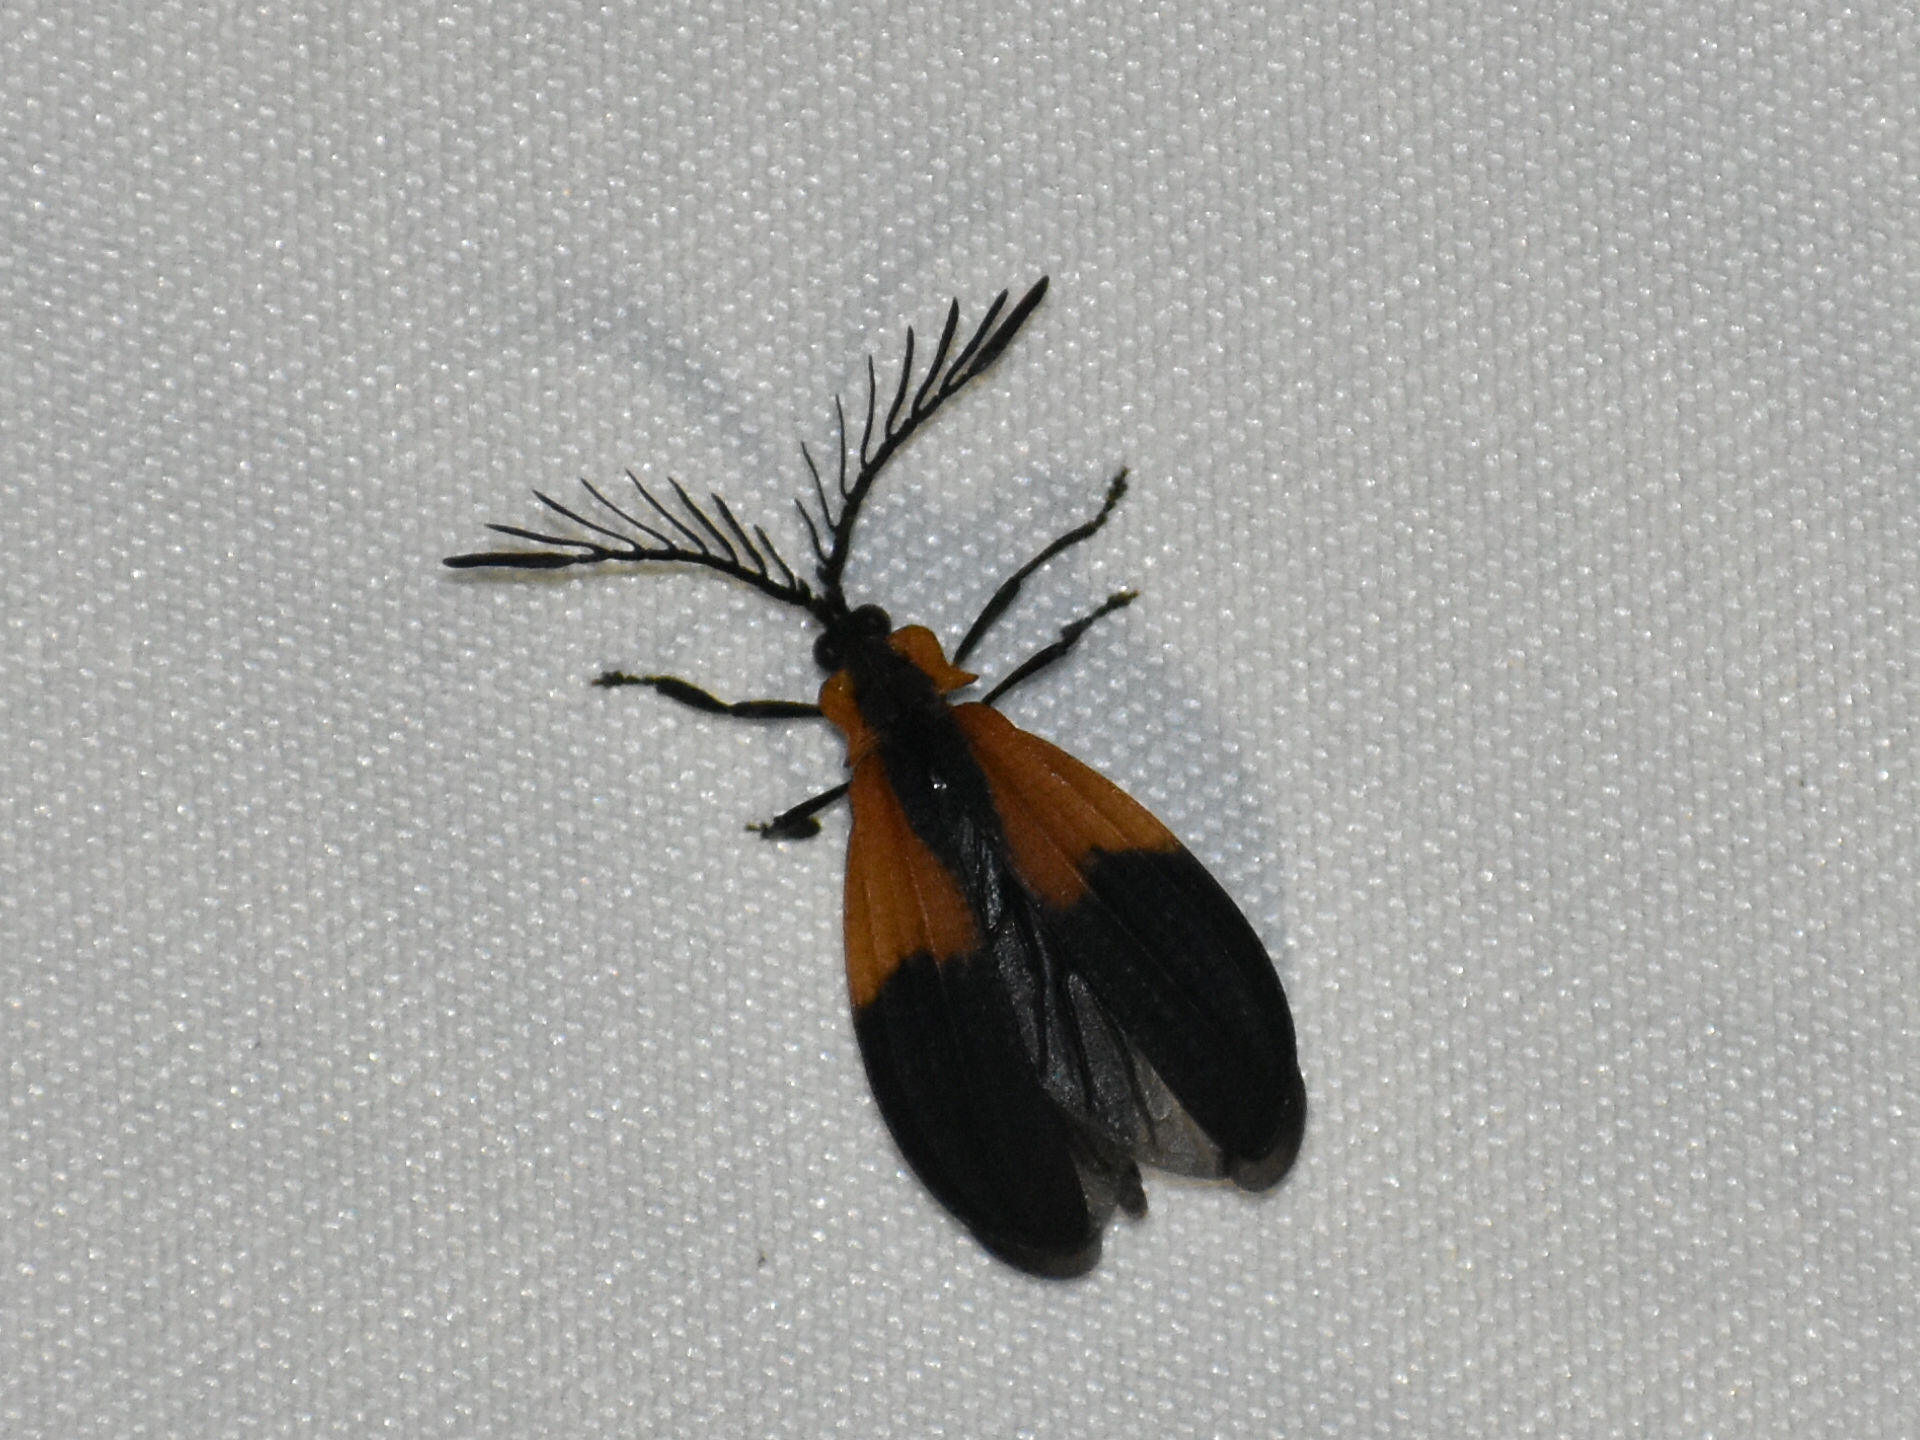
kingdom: Animalia
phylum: Arthropoda
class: Insecta
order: Coleoptera
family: Lycidae
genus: Caenia
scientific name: Caenia dimidiata
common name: Terminal net-winged beetle
